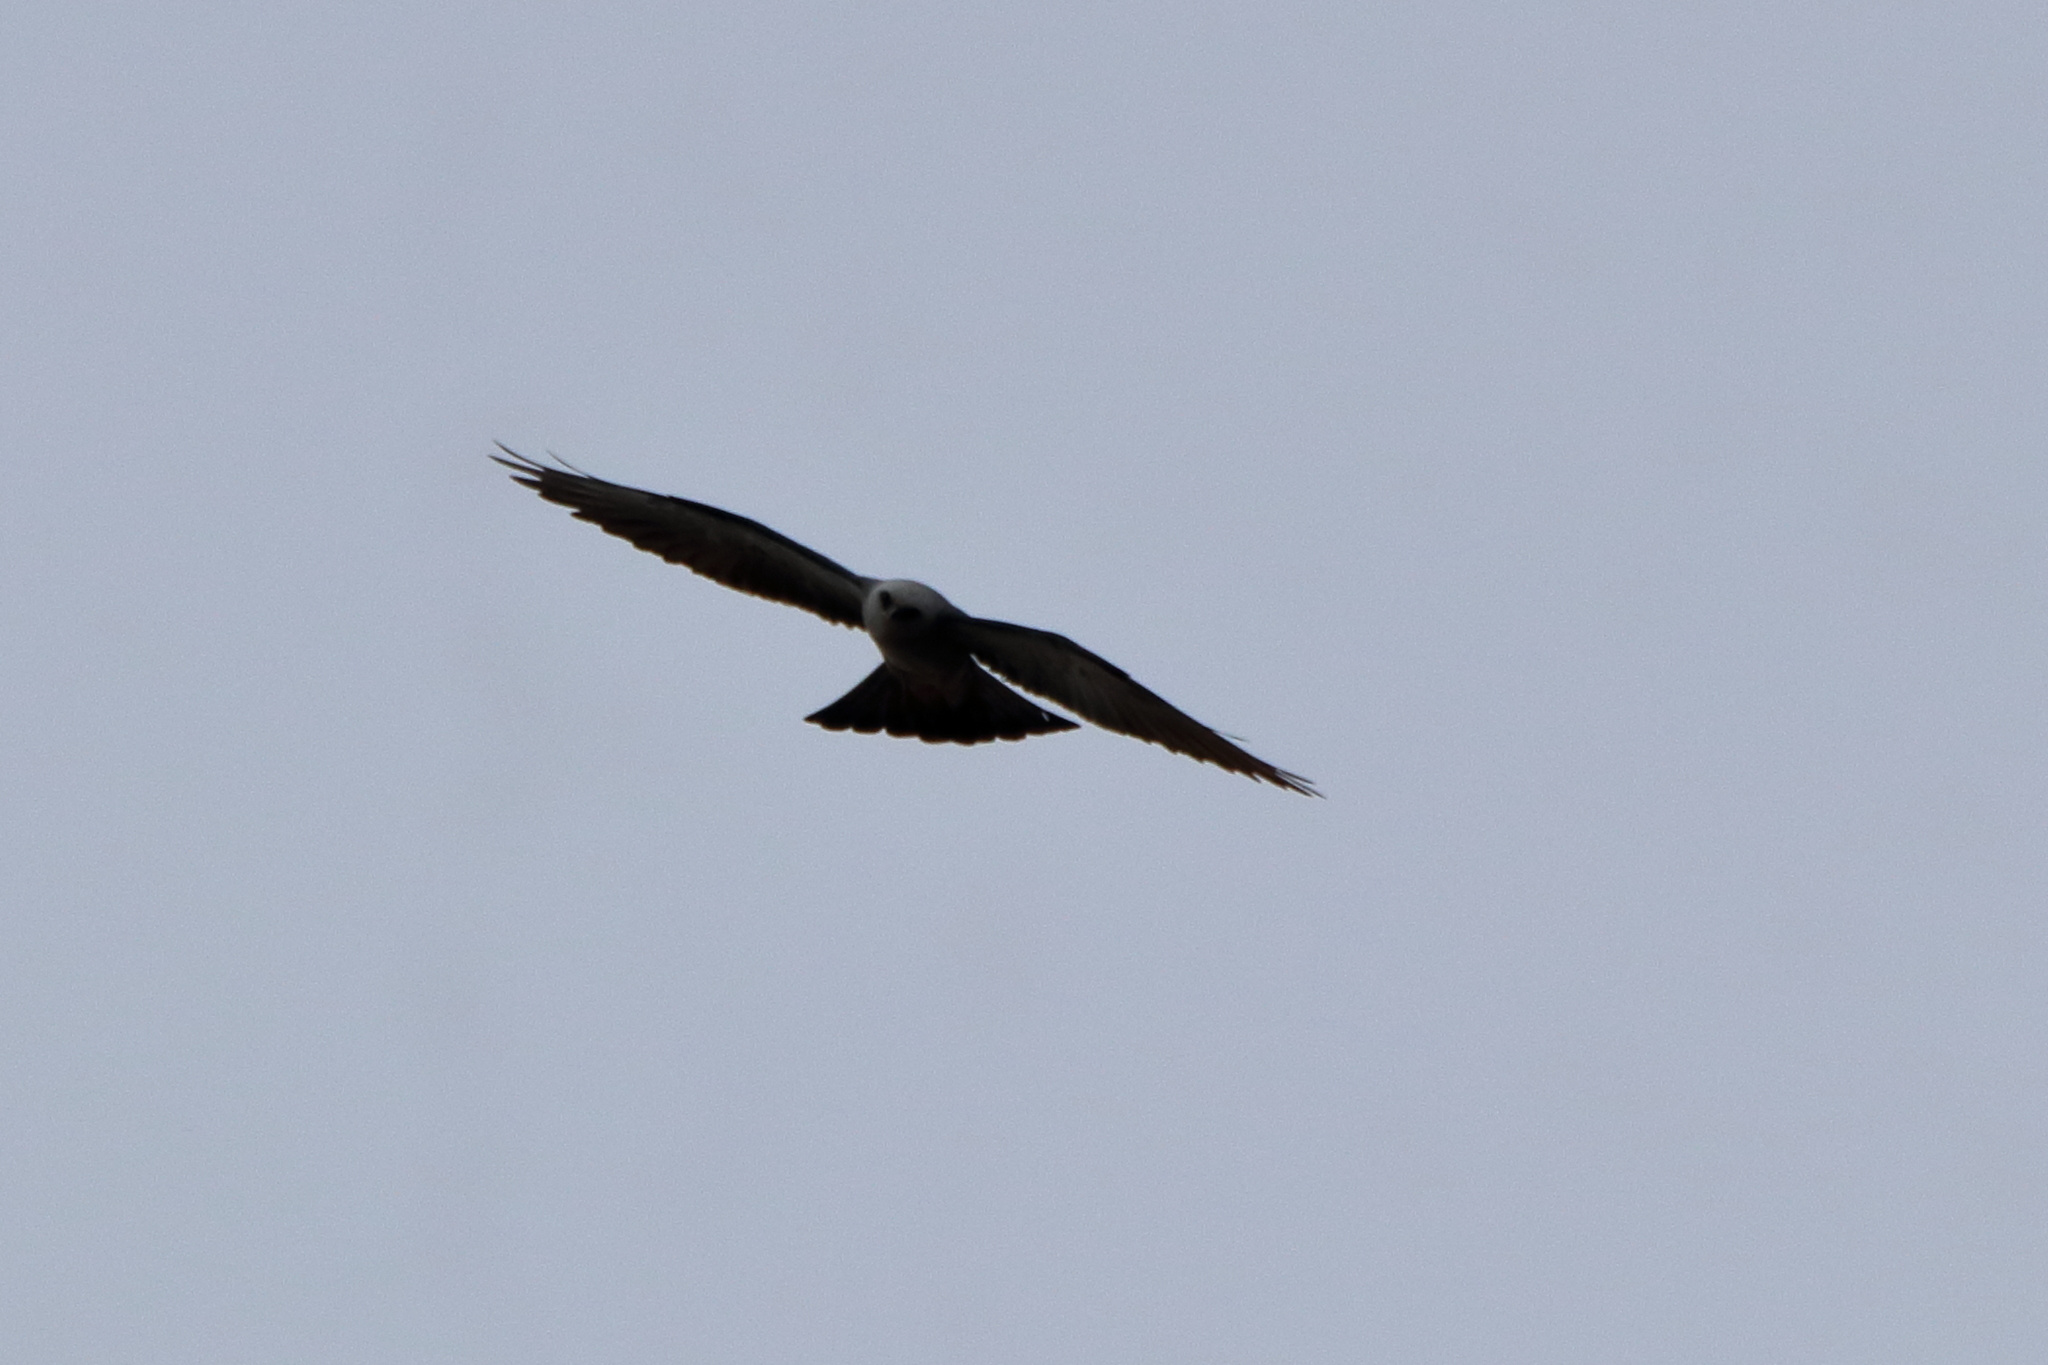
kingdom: Animalia
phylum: Chordata
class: Aves
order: Accipitriformes
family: Accipitridae
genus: Ictinia
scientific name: Ictinia mississippiensis
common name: Mississippi kite
